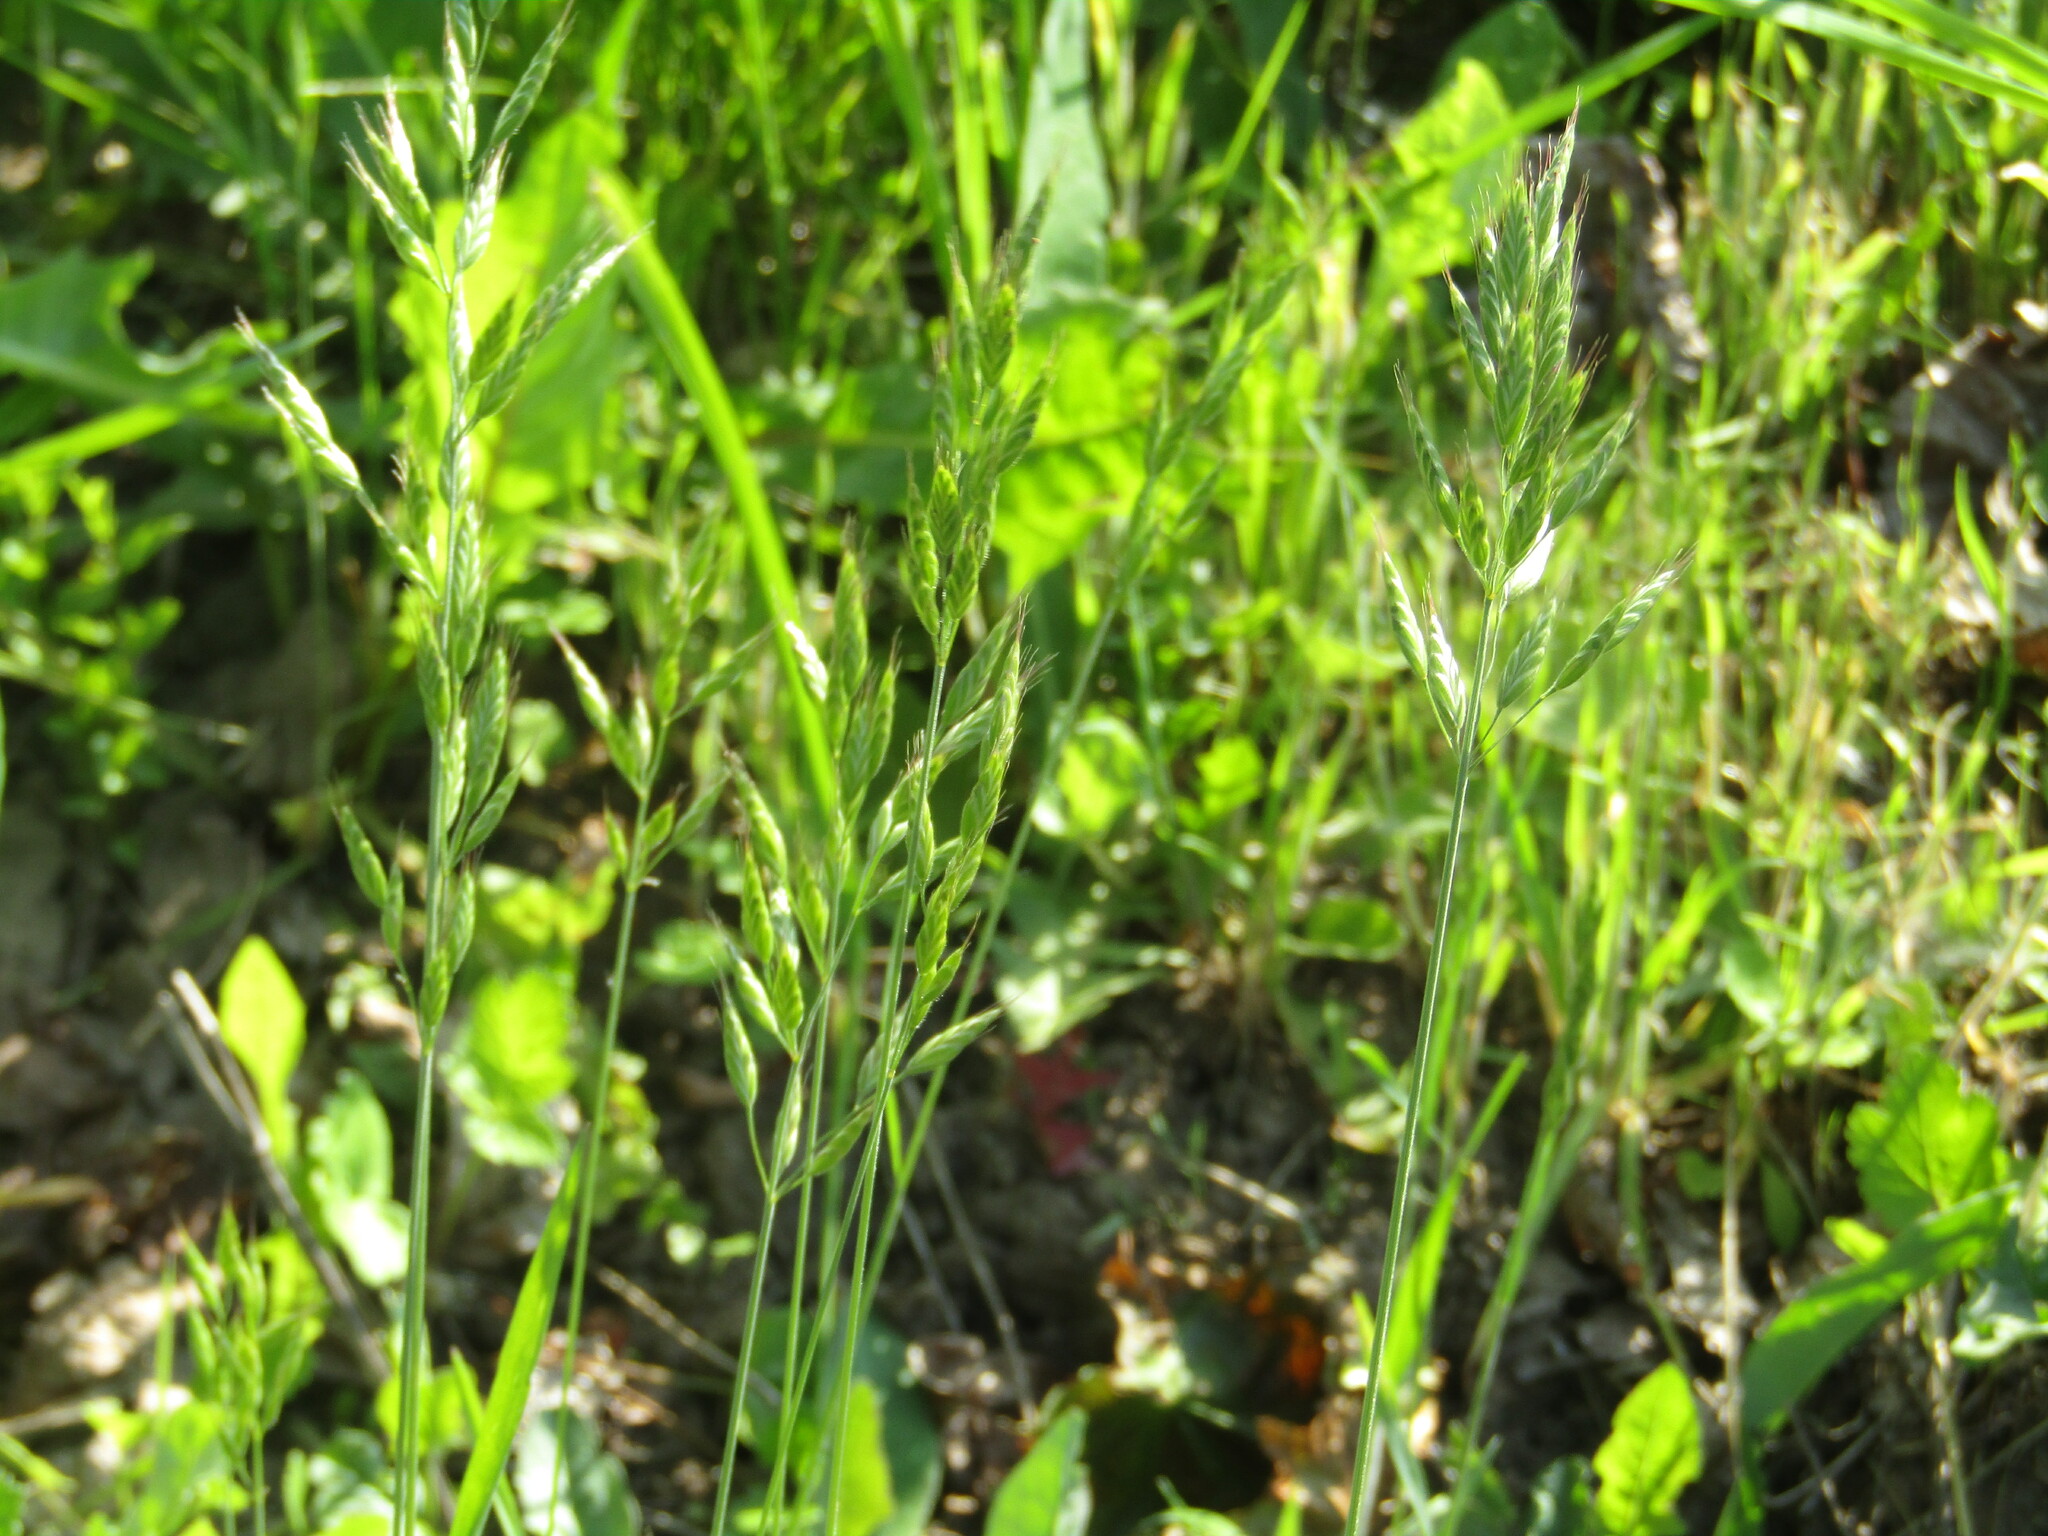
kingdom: Plantae
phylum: Tracheophyta
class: Liliopsida
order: Poales
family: Poaceae
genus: Bromus
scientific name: Bromus hordeaceus
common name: Soft brome
